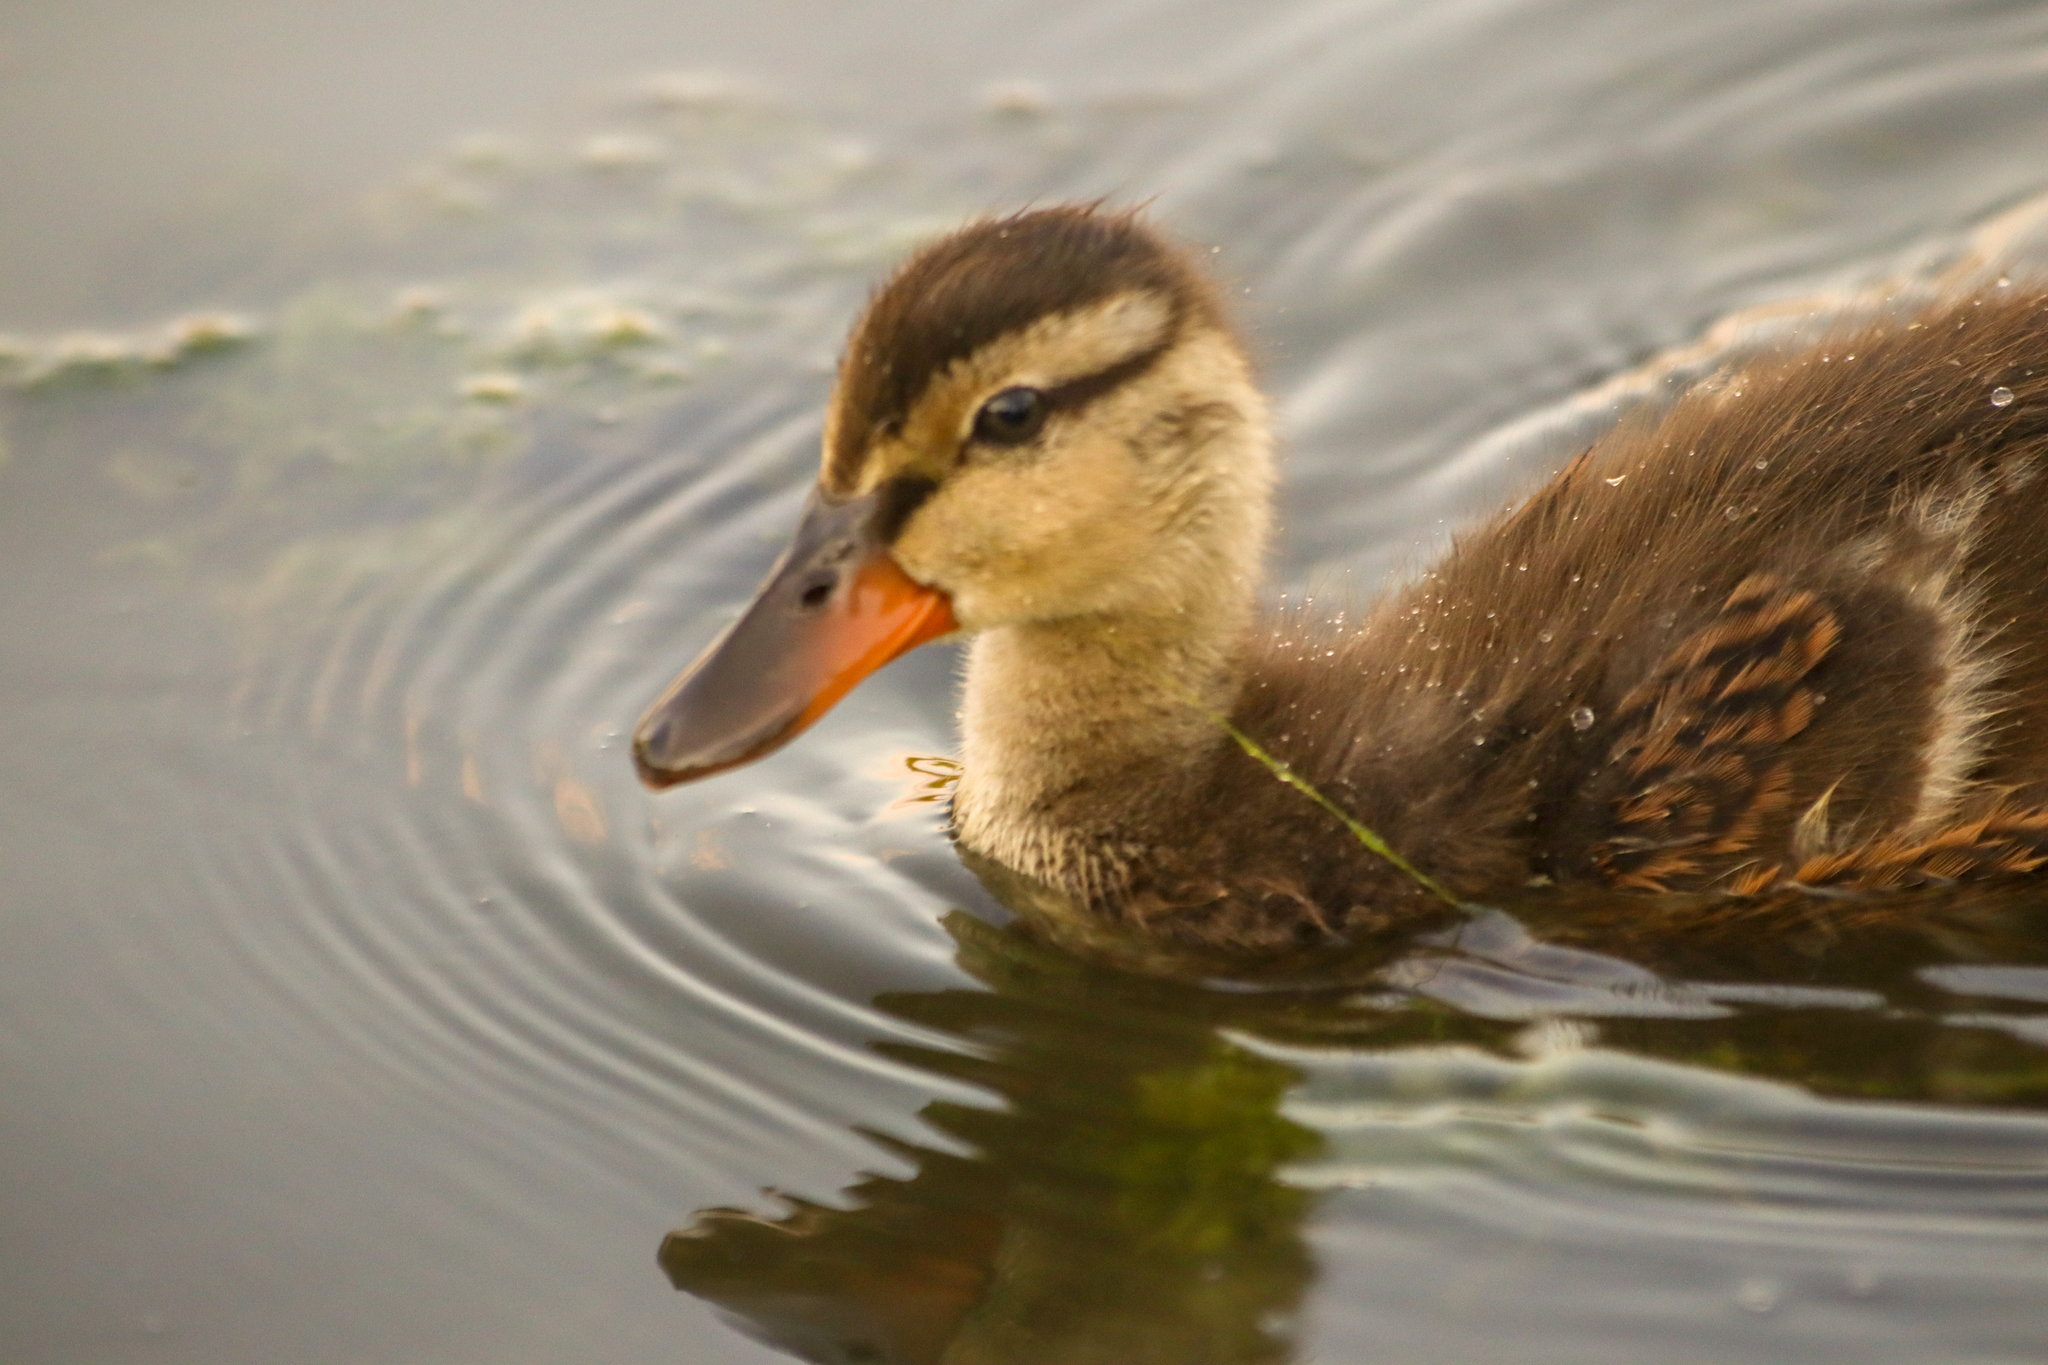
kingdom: Animalia
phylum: Chordata
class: Aves
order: Anseriformes
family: Anatidae
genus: Anas
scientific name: Anas platyrhynchos
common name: Mallard
